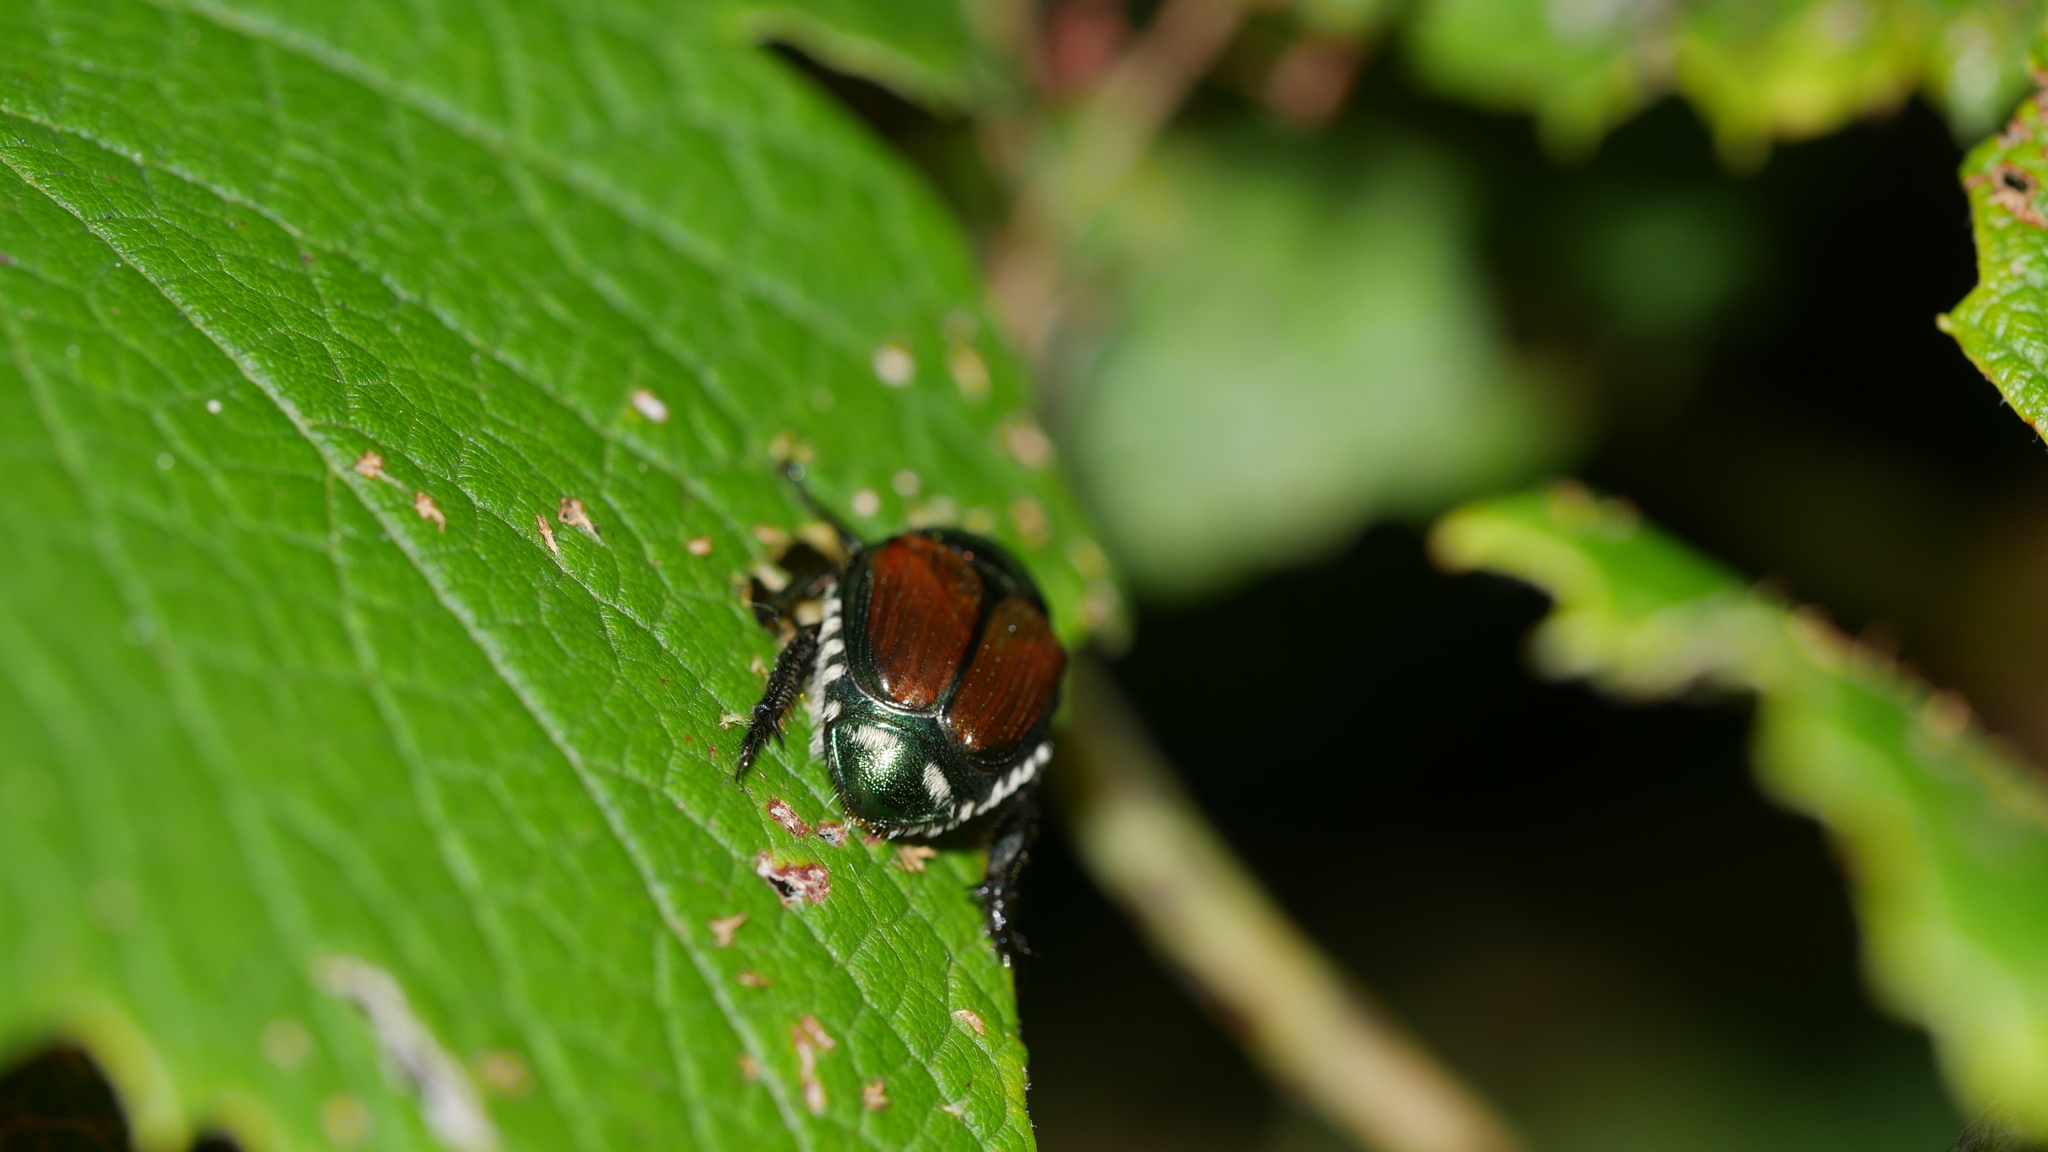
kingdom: Animalia
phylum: Arthropoda
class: Insecta
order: Coleoptera
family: Scarabaeidae
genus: Popillia
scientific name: Popillia japonica
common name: Japanese beetle
